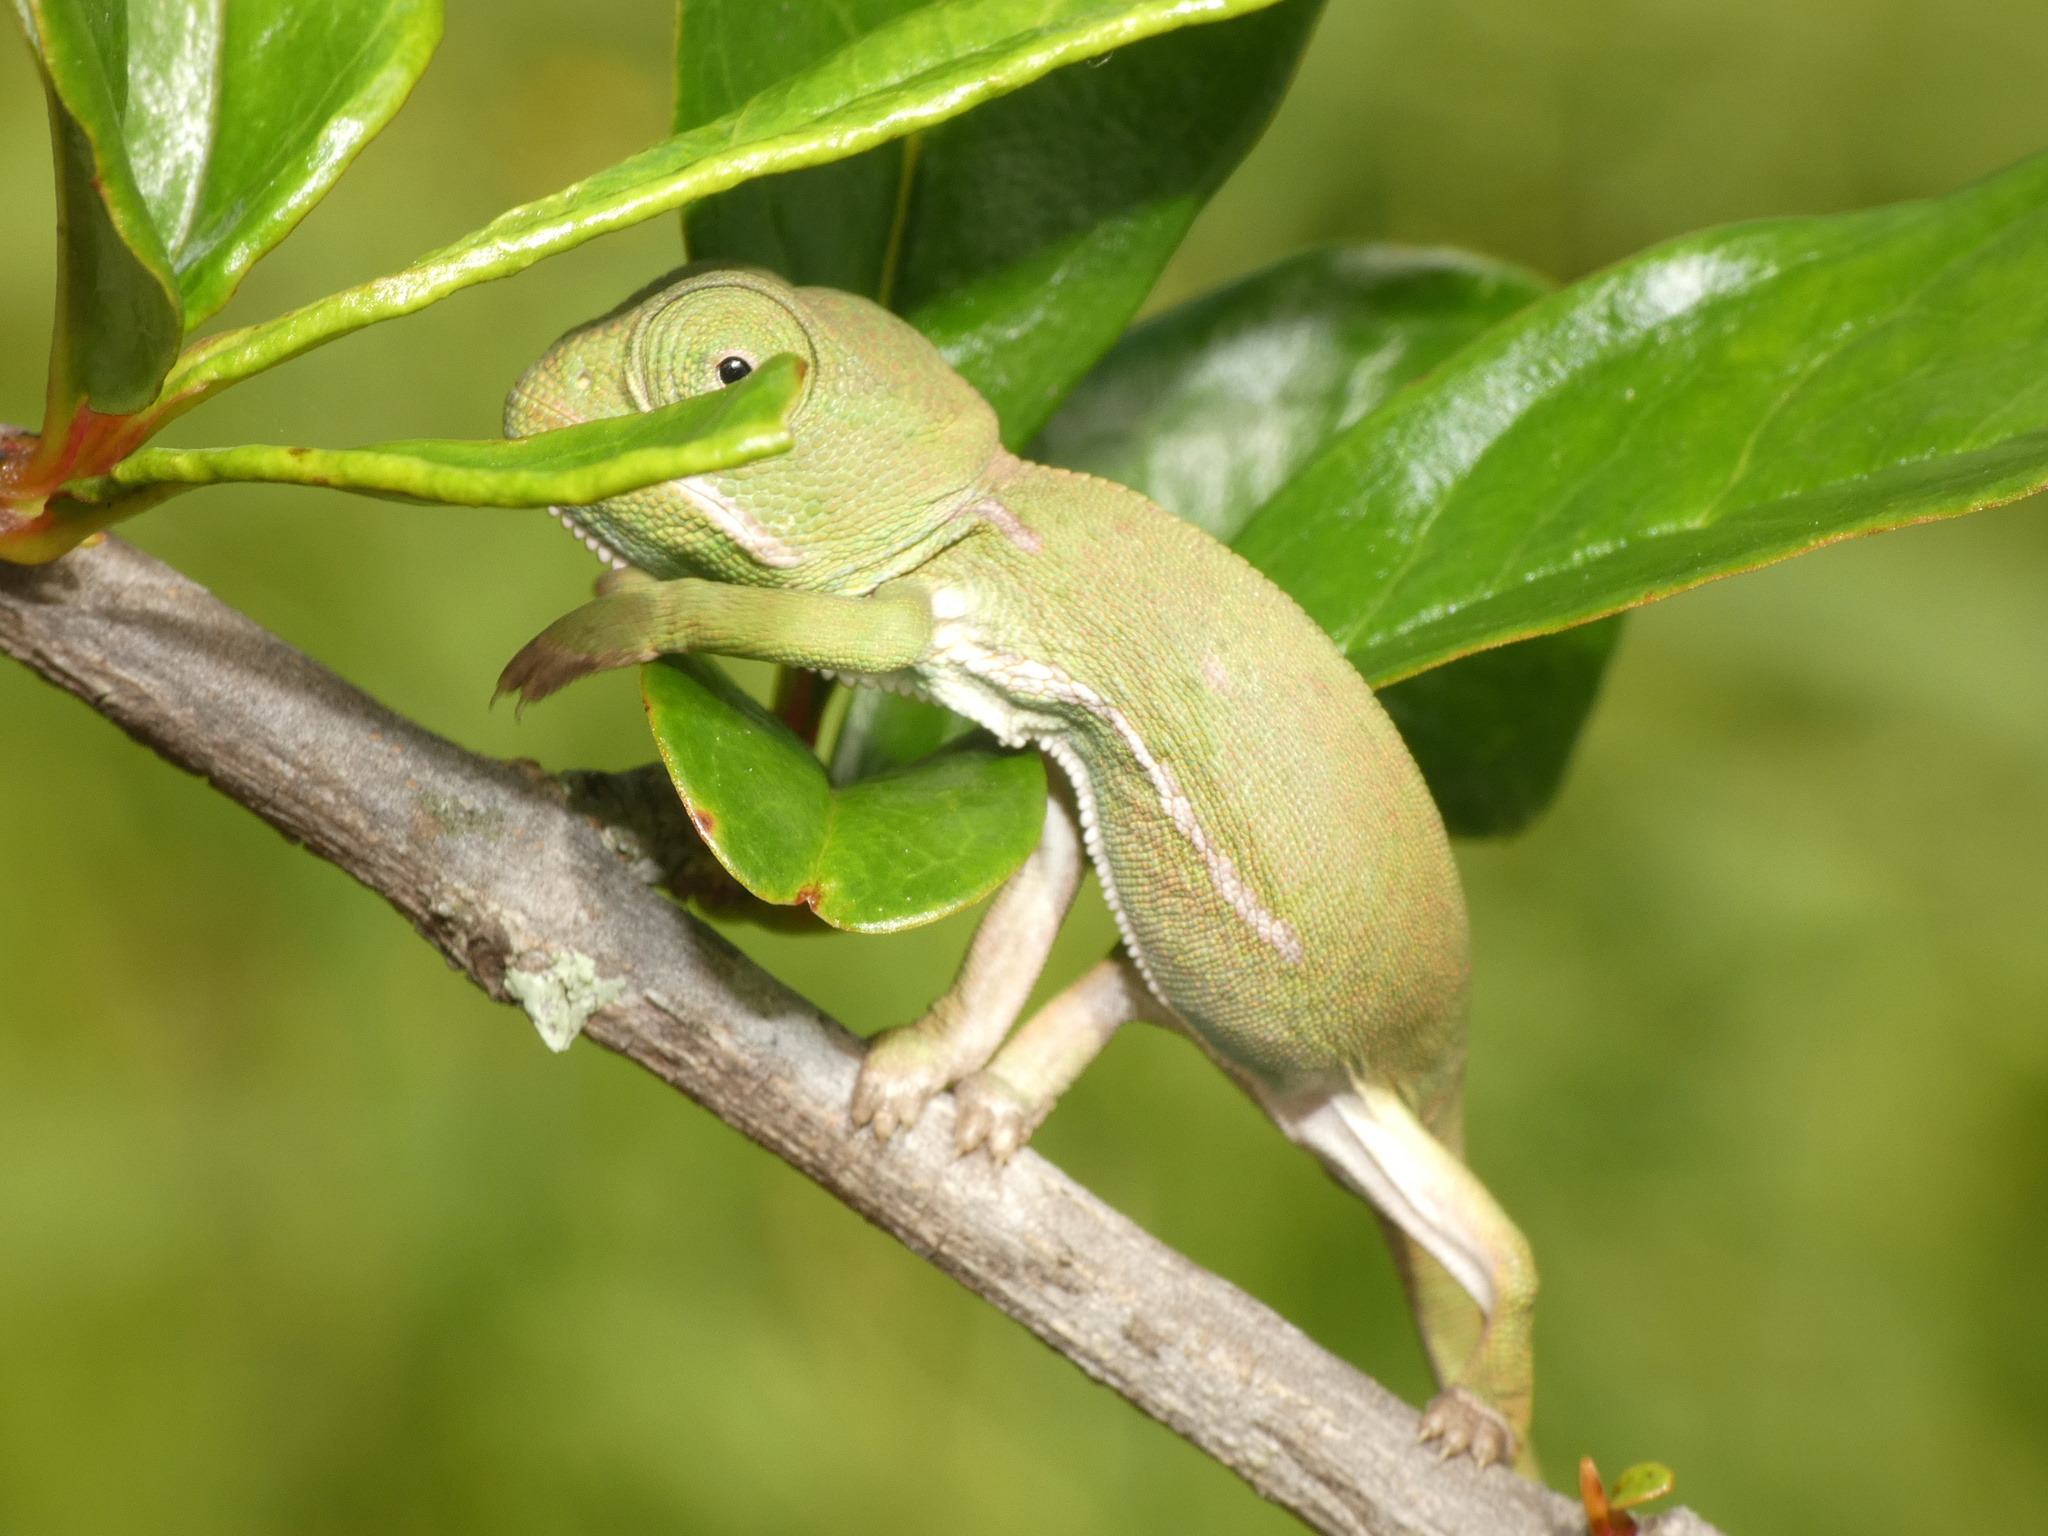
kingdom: Animalia
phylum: Chordata
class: Squamata
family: Chamaeleonidae
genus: Chamaeleo
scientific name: Chamaeleo dilepis
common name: Flapneck chameleon
